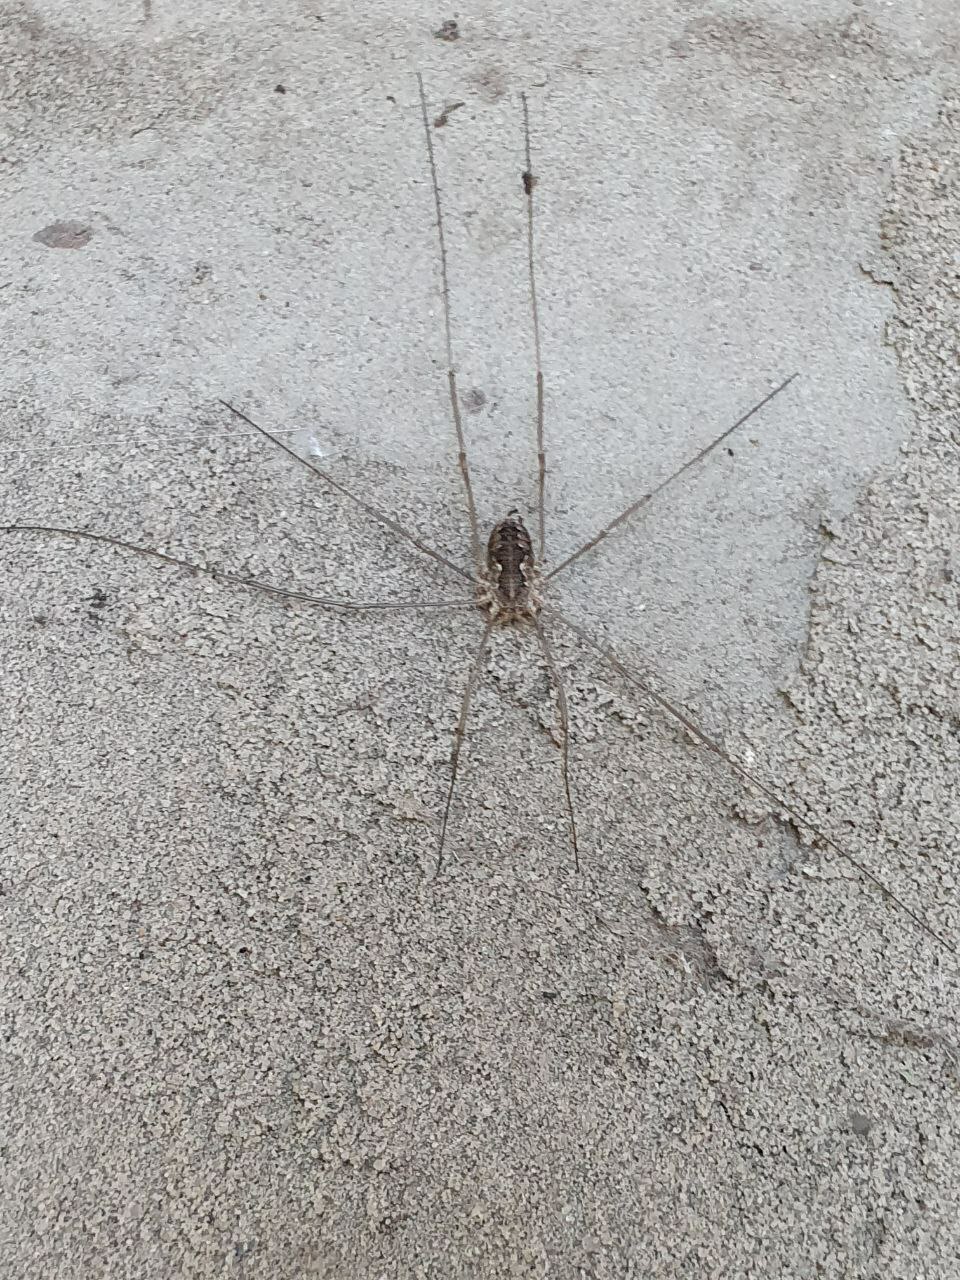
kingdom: Animalia
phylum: Arthropoda
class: Arachnida
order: Opiliones
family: Phalangiidae
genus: Phalangium
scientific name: Phalangium opilio
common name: Daddy longleg
